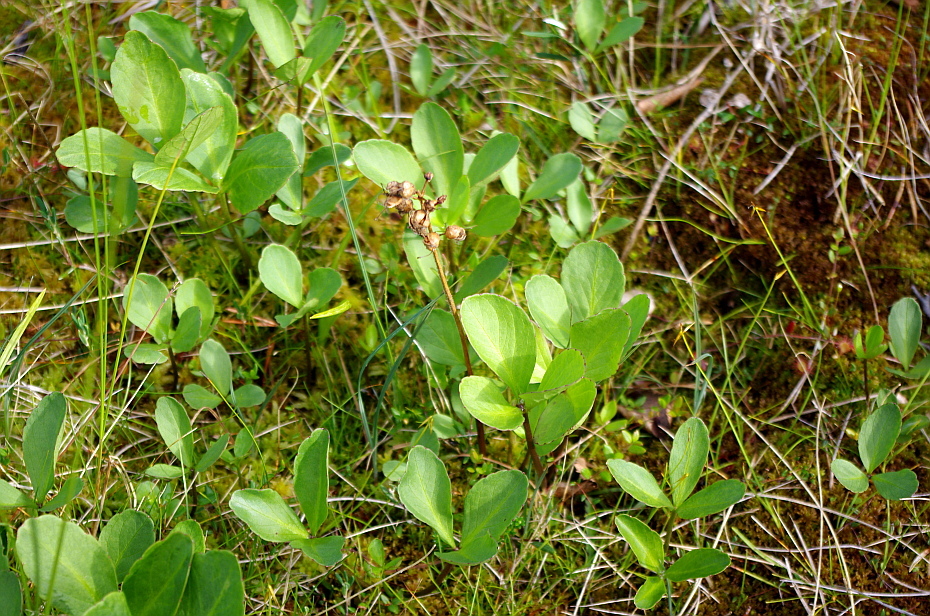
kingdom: Plantae
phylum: Tracheophyta
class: Magnoliopsida
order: Asterales
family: Menyanthaceae
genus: Menyanthes
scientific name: Menyanthes trifoliata
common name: Bogbean
